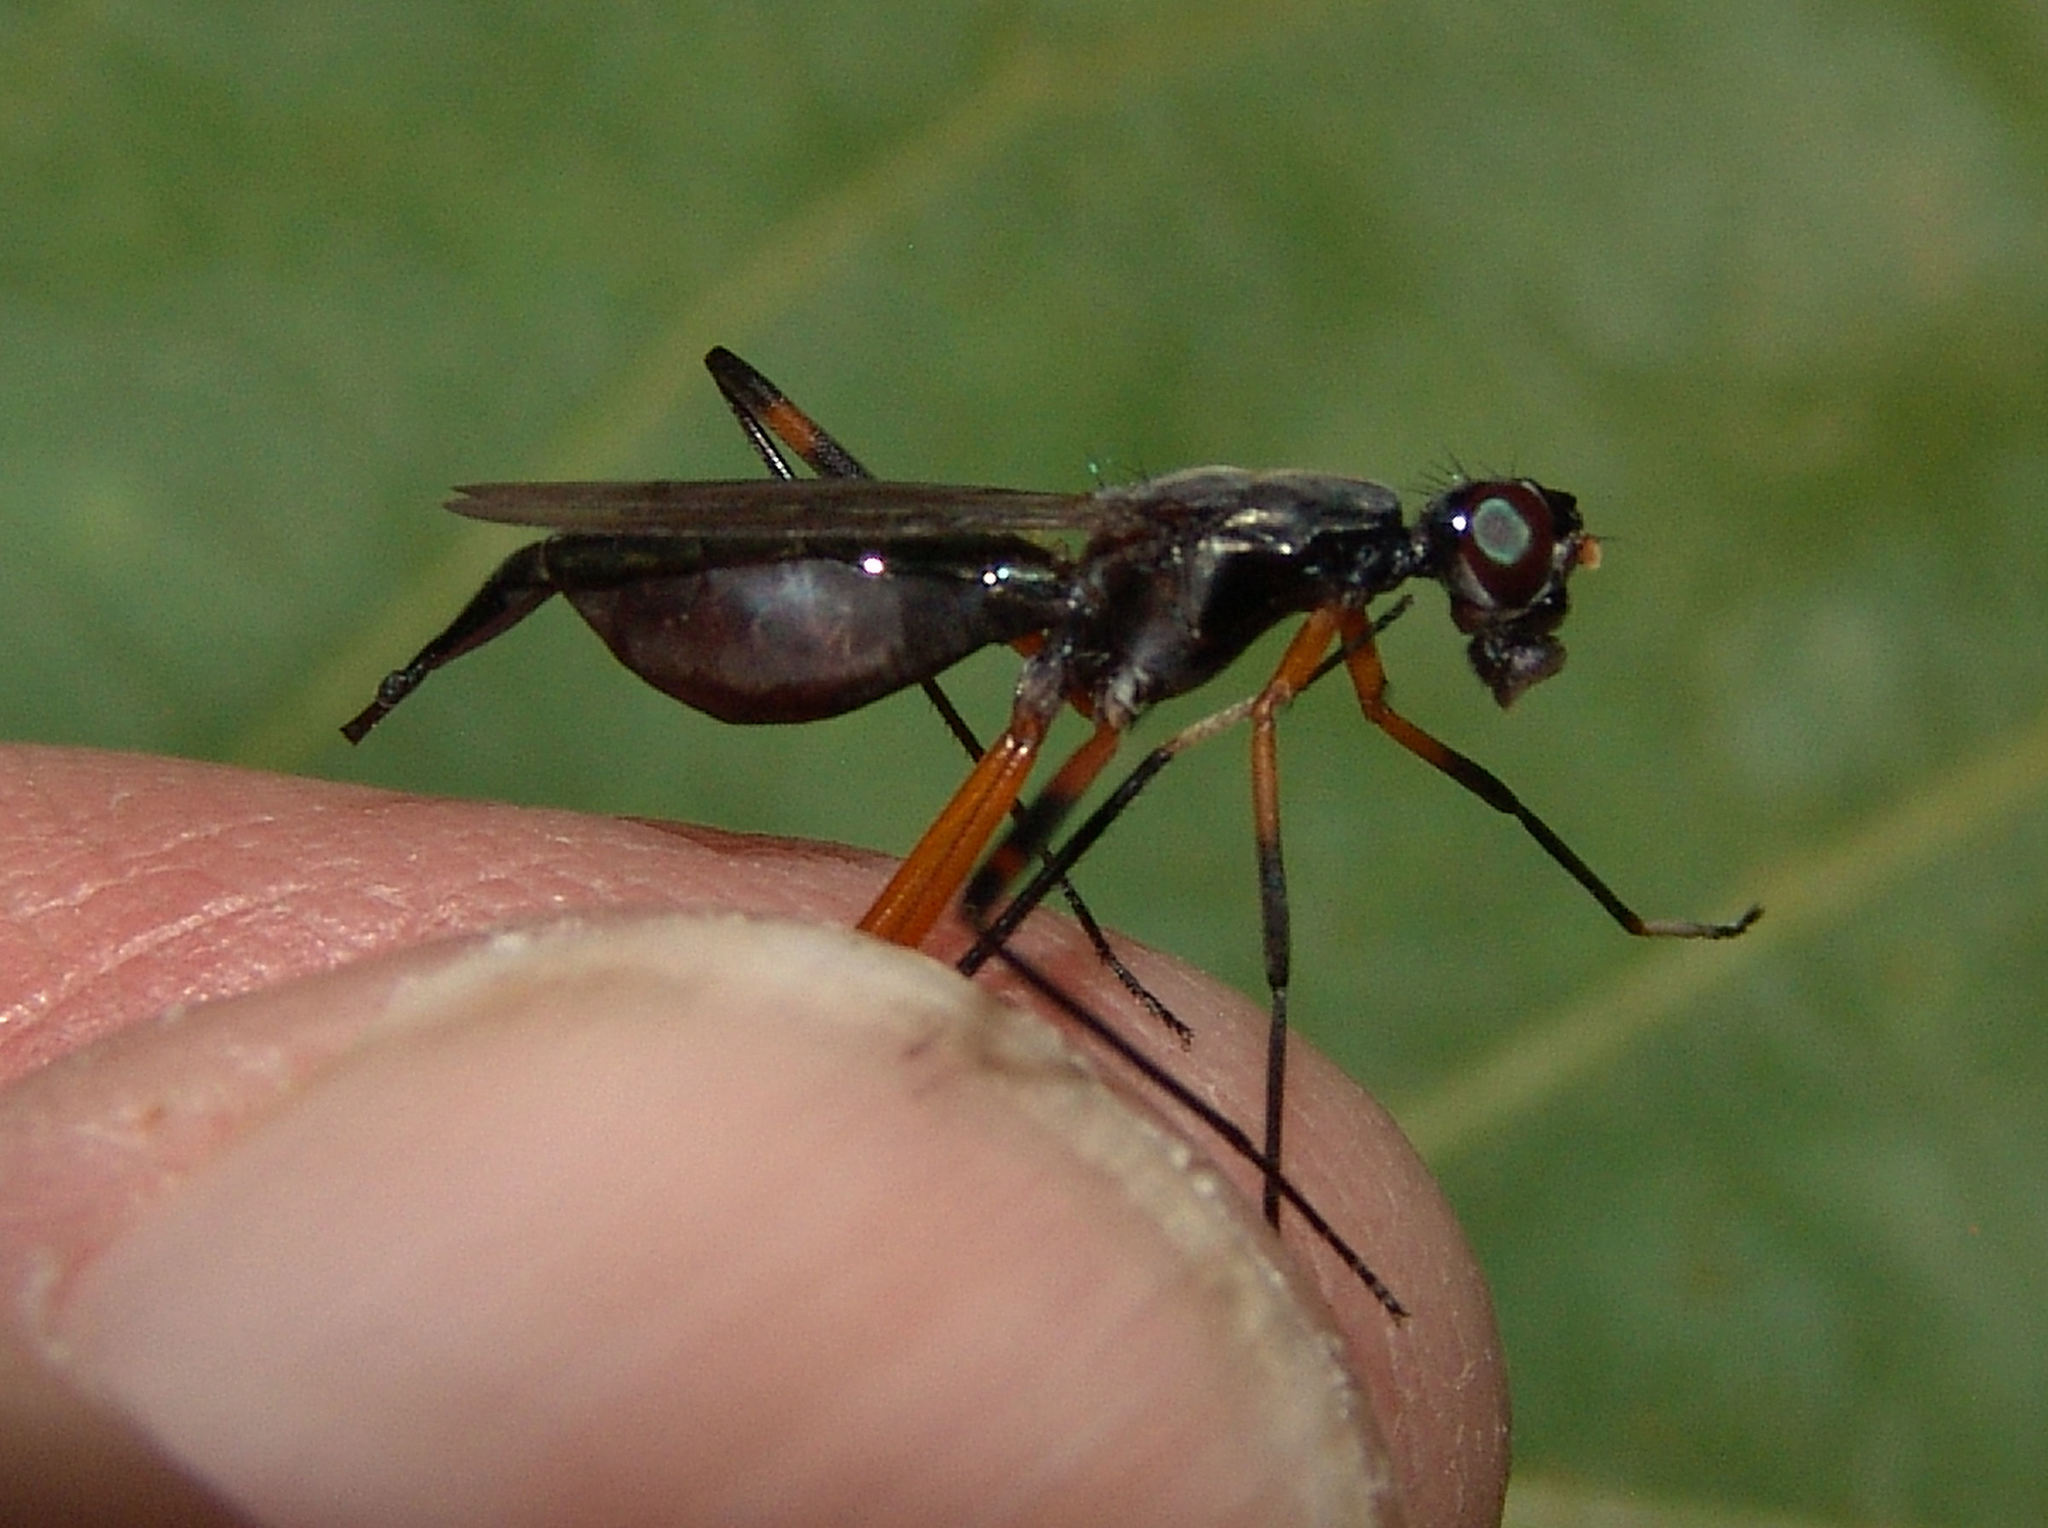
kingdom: Animalia
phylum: Arthropoda
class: Insecta
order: Diptera
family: Micropezidae
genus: Calobatina
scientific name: Calobatina geometra
